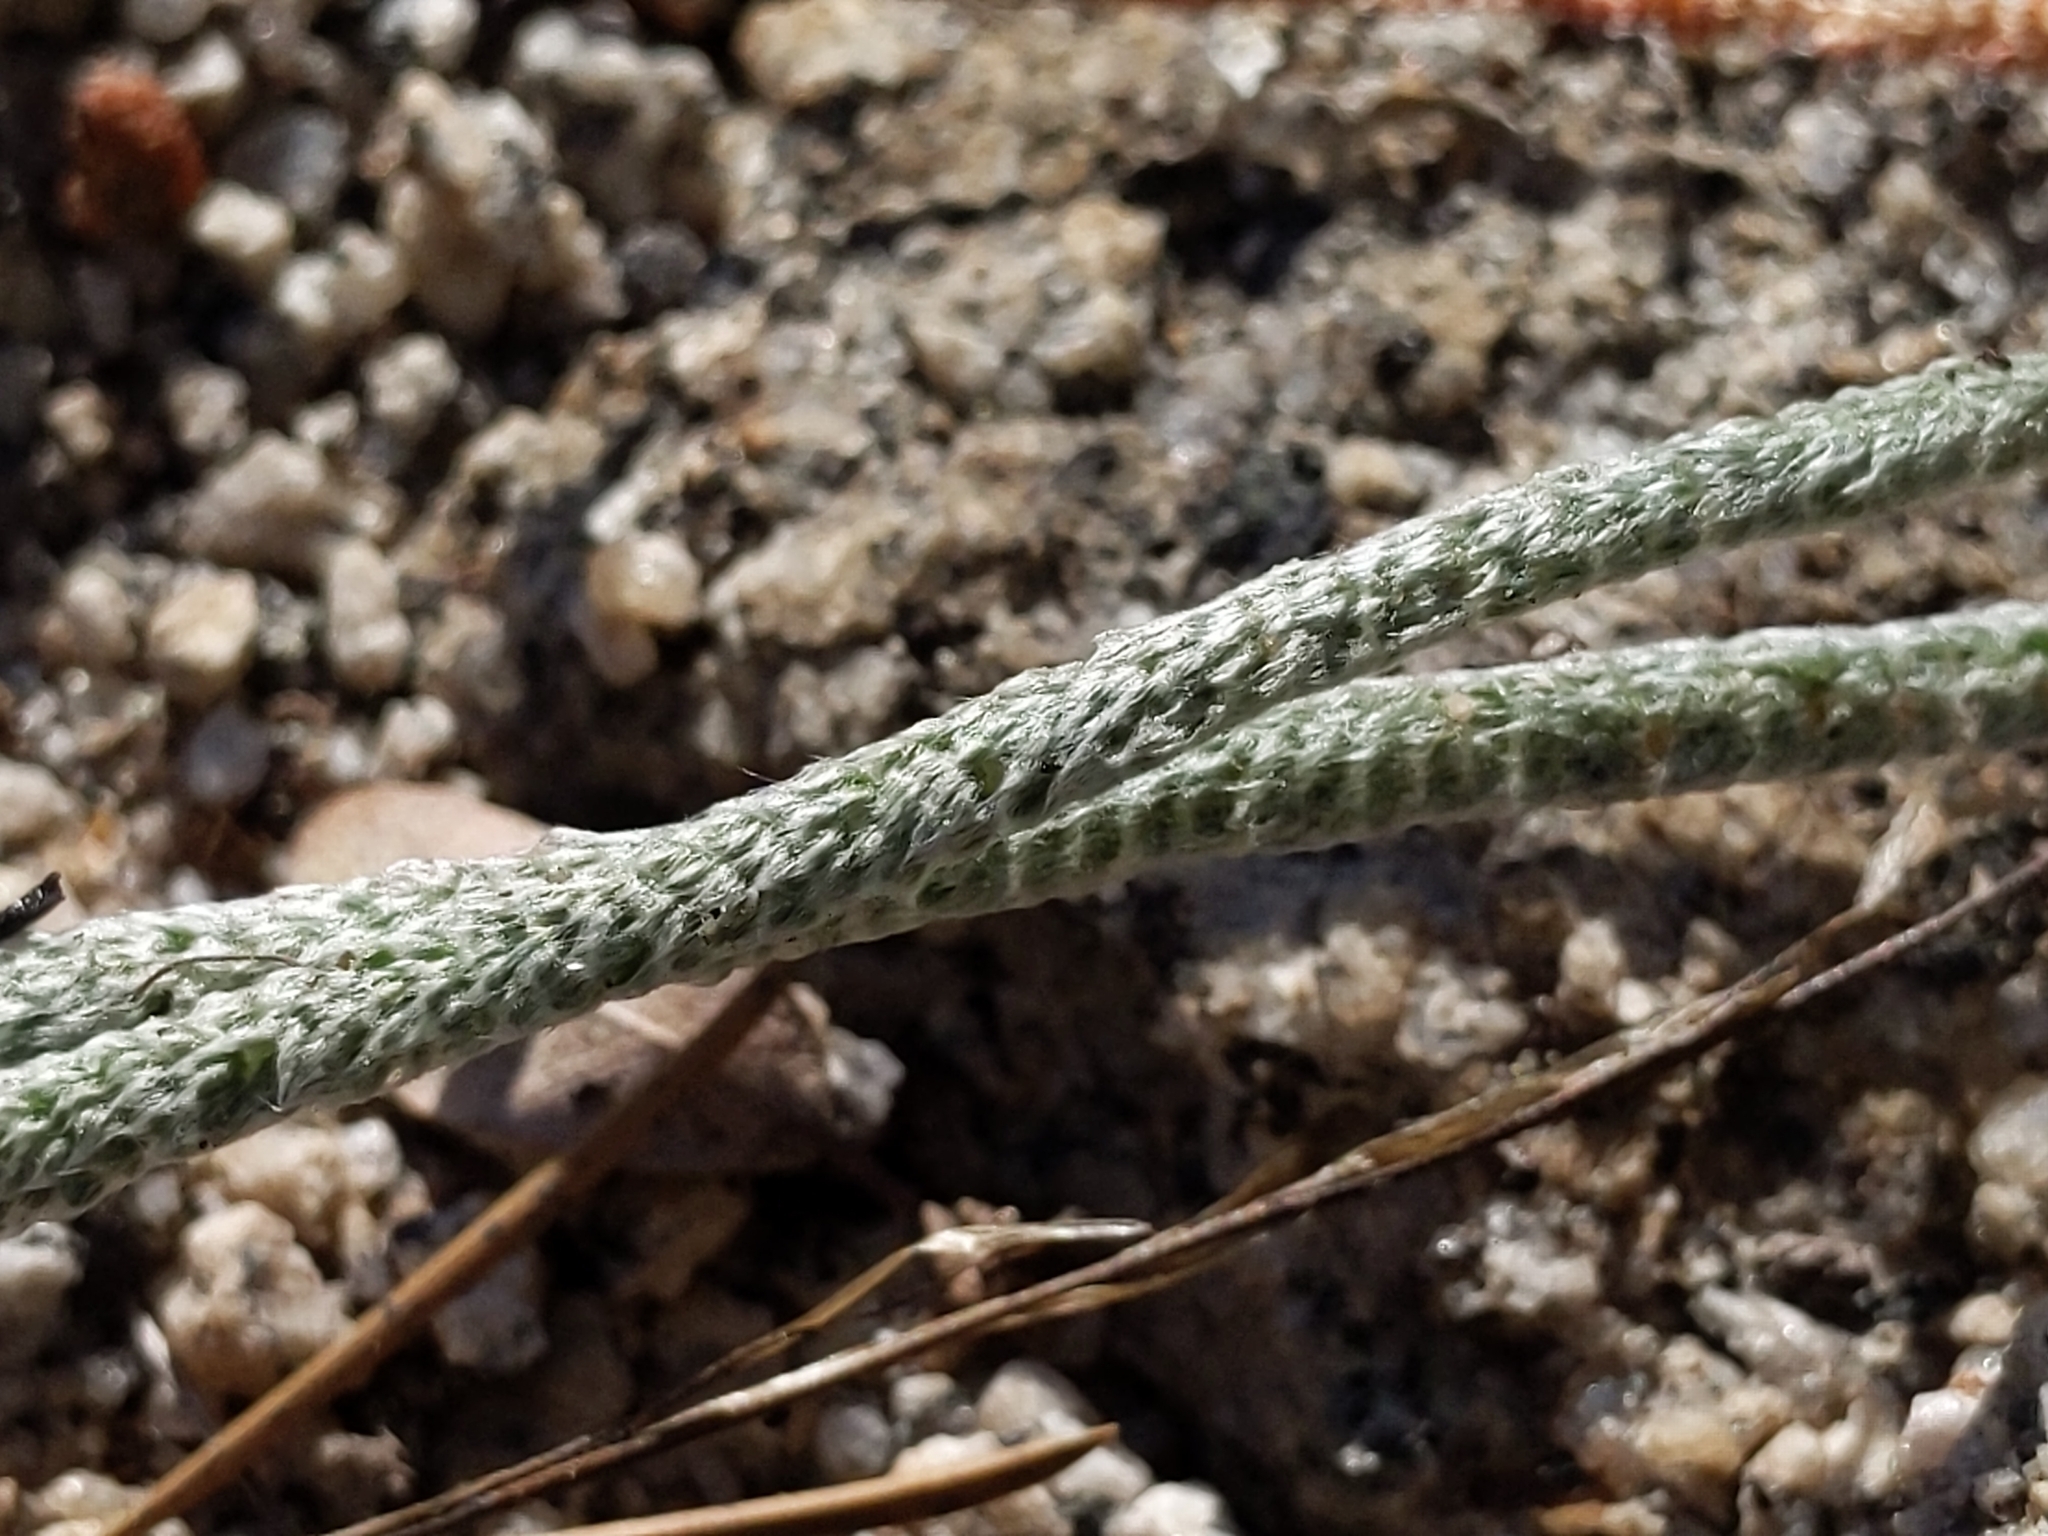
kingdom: Plantae
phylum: Tracheophyta
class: Magnoliopsida
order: Rosales
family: Rosaceae
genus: Potentilla
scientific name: Potentilla santolinoides
